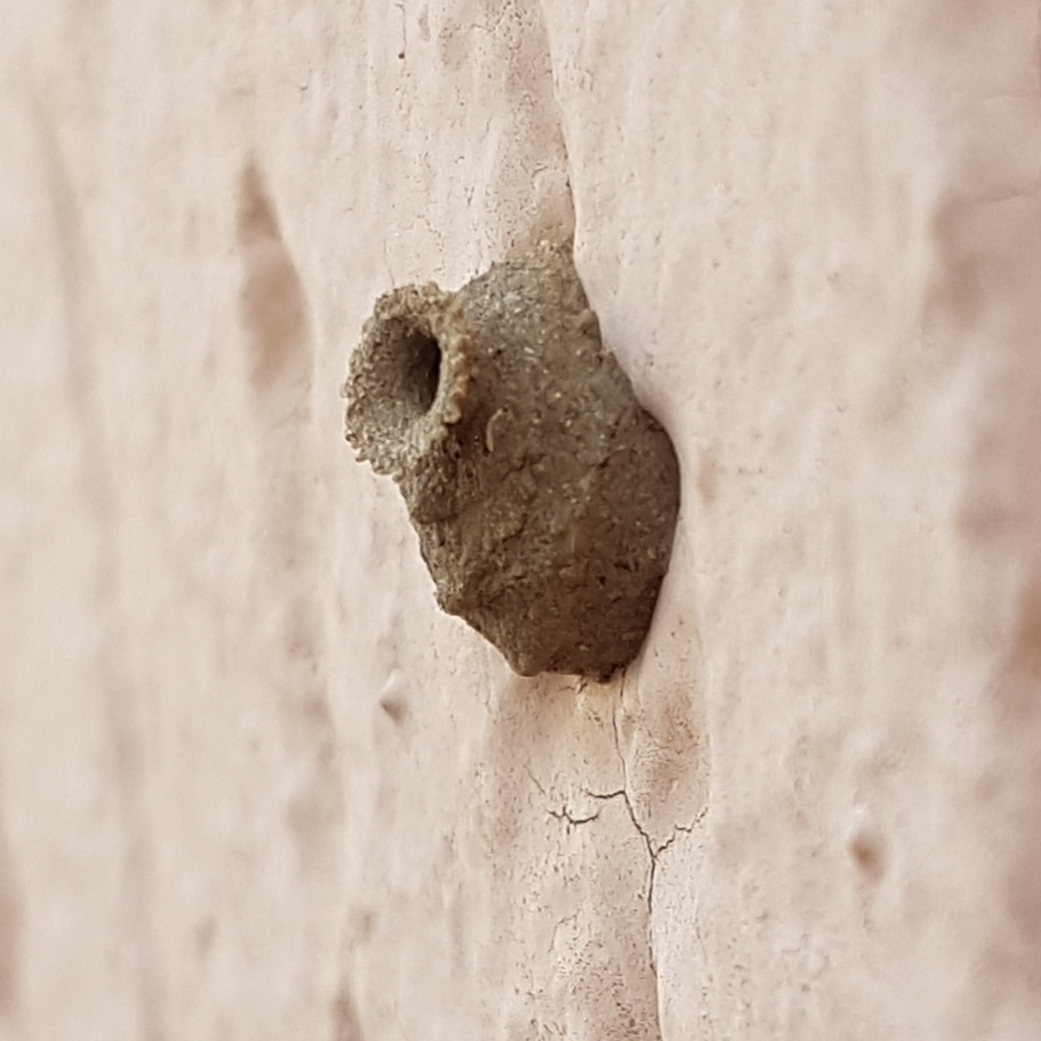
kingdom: Animalia
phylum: Arthropoda
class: Insecta
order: Hymenoptera
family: Eumenidae
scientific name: Eumenidae
